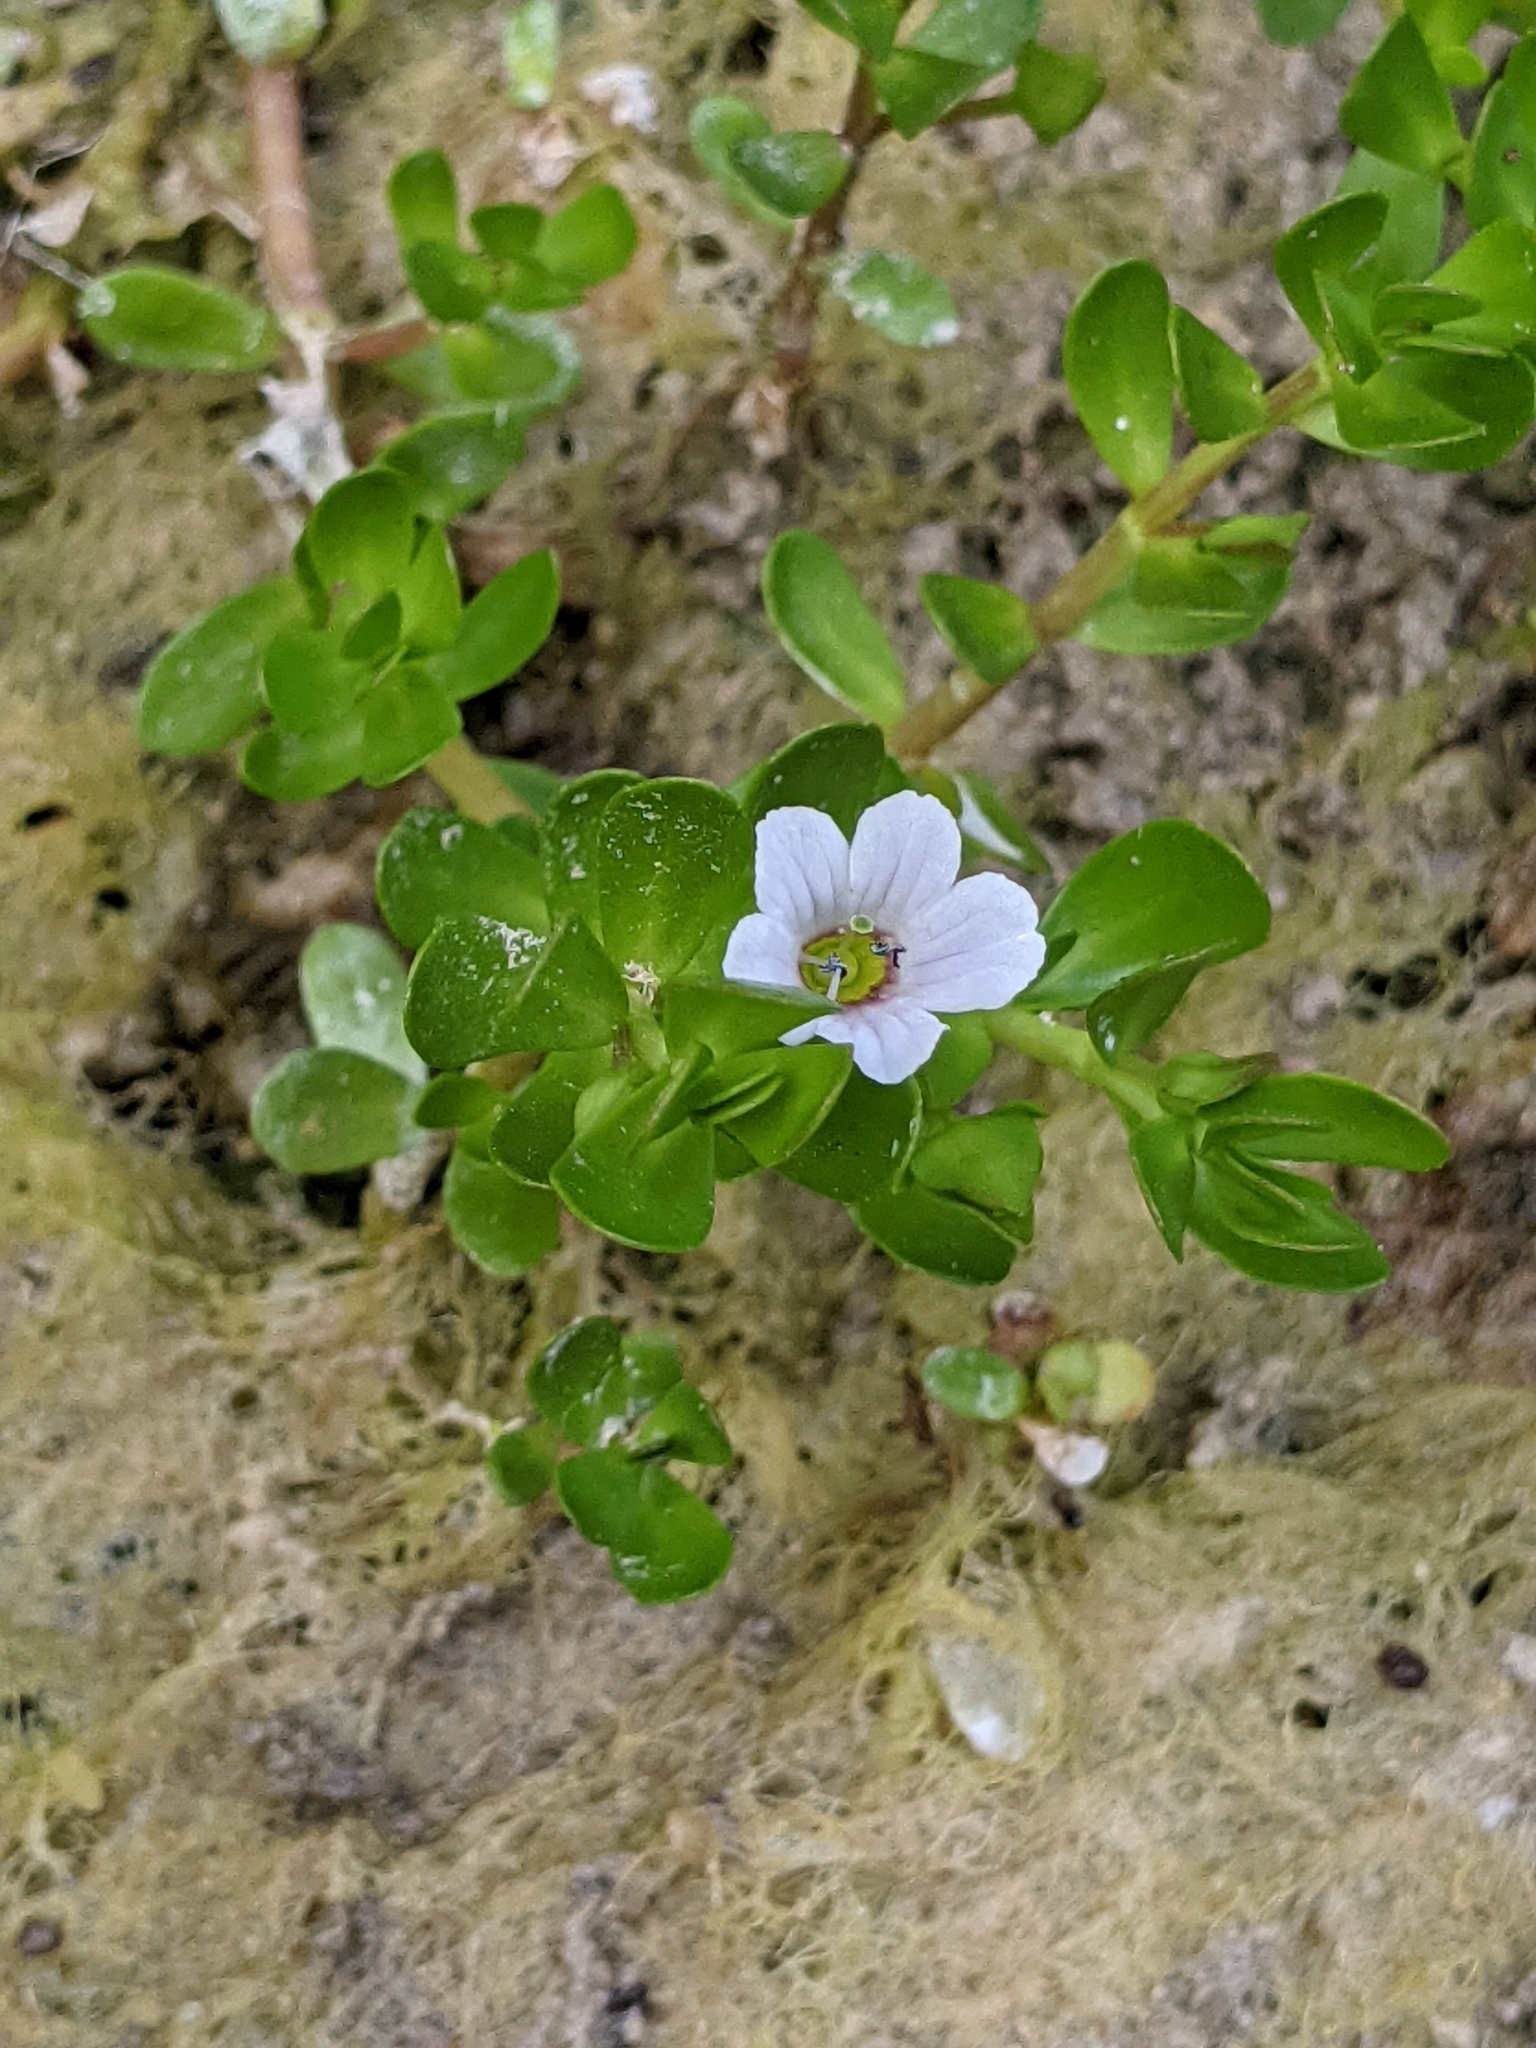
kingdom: Plantae
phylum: Tracheophyta
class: Magnoliopsida
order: Lamiales
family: Plantaginaceae
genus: Bacopa
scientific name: Bacopa monnieri
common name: Indian-pennywort
